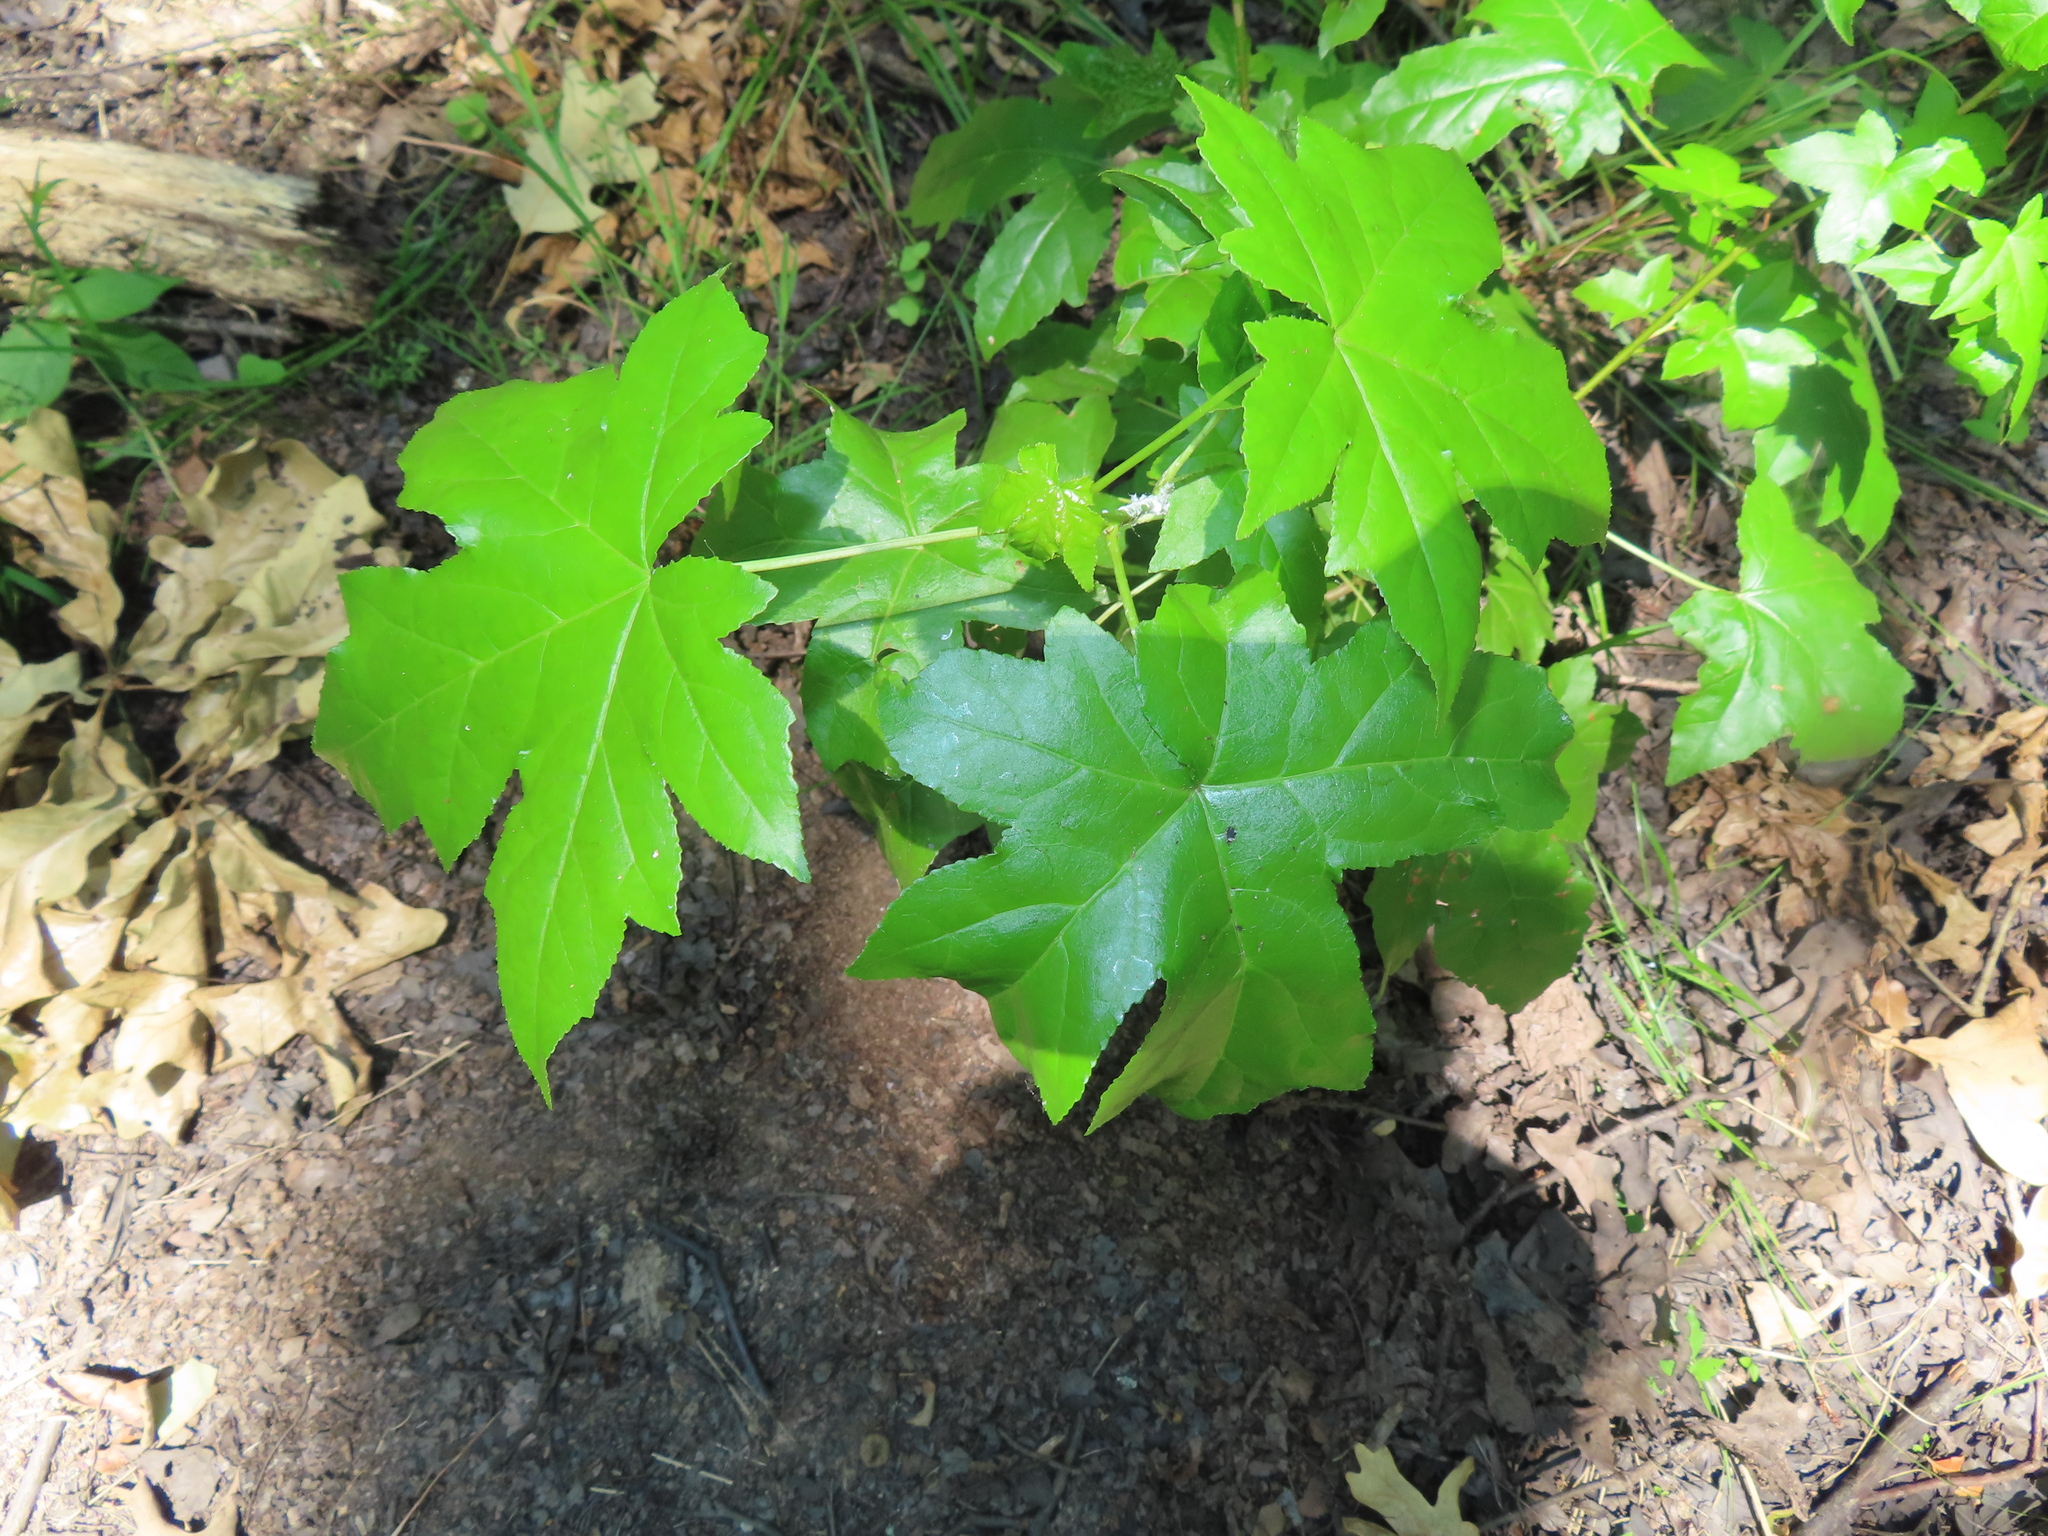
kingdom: Plantae
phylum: Tracheophyta
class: Magnoliopsida
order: Saxifragales
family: Altingiaceae
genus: Liquidambar
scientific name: Liquidambar styraciflua
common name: Sweet gum
